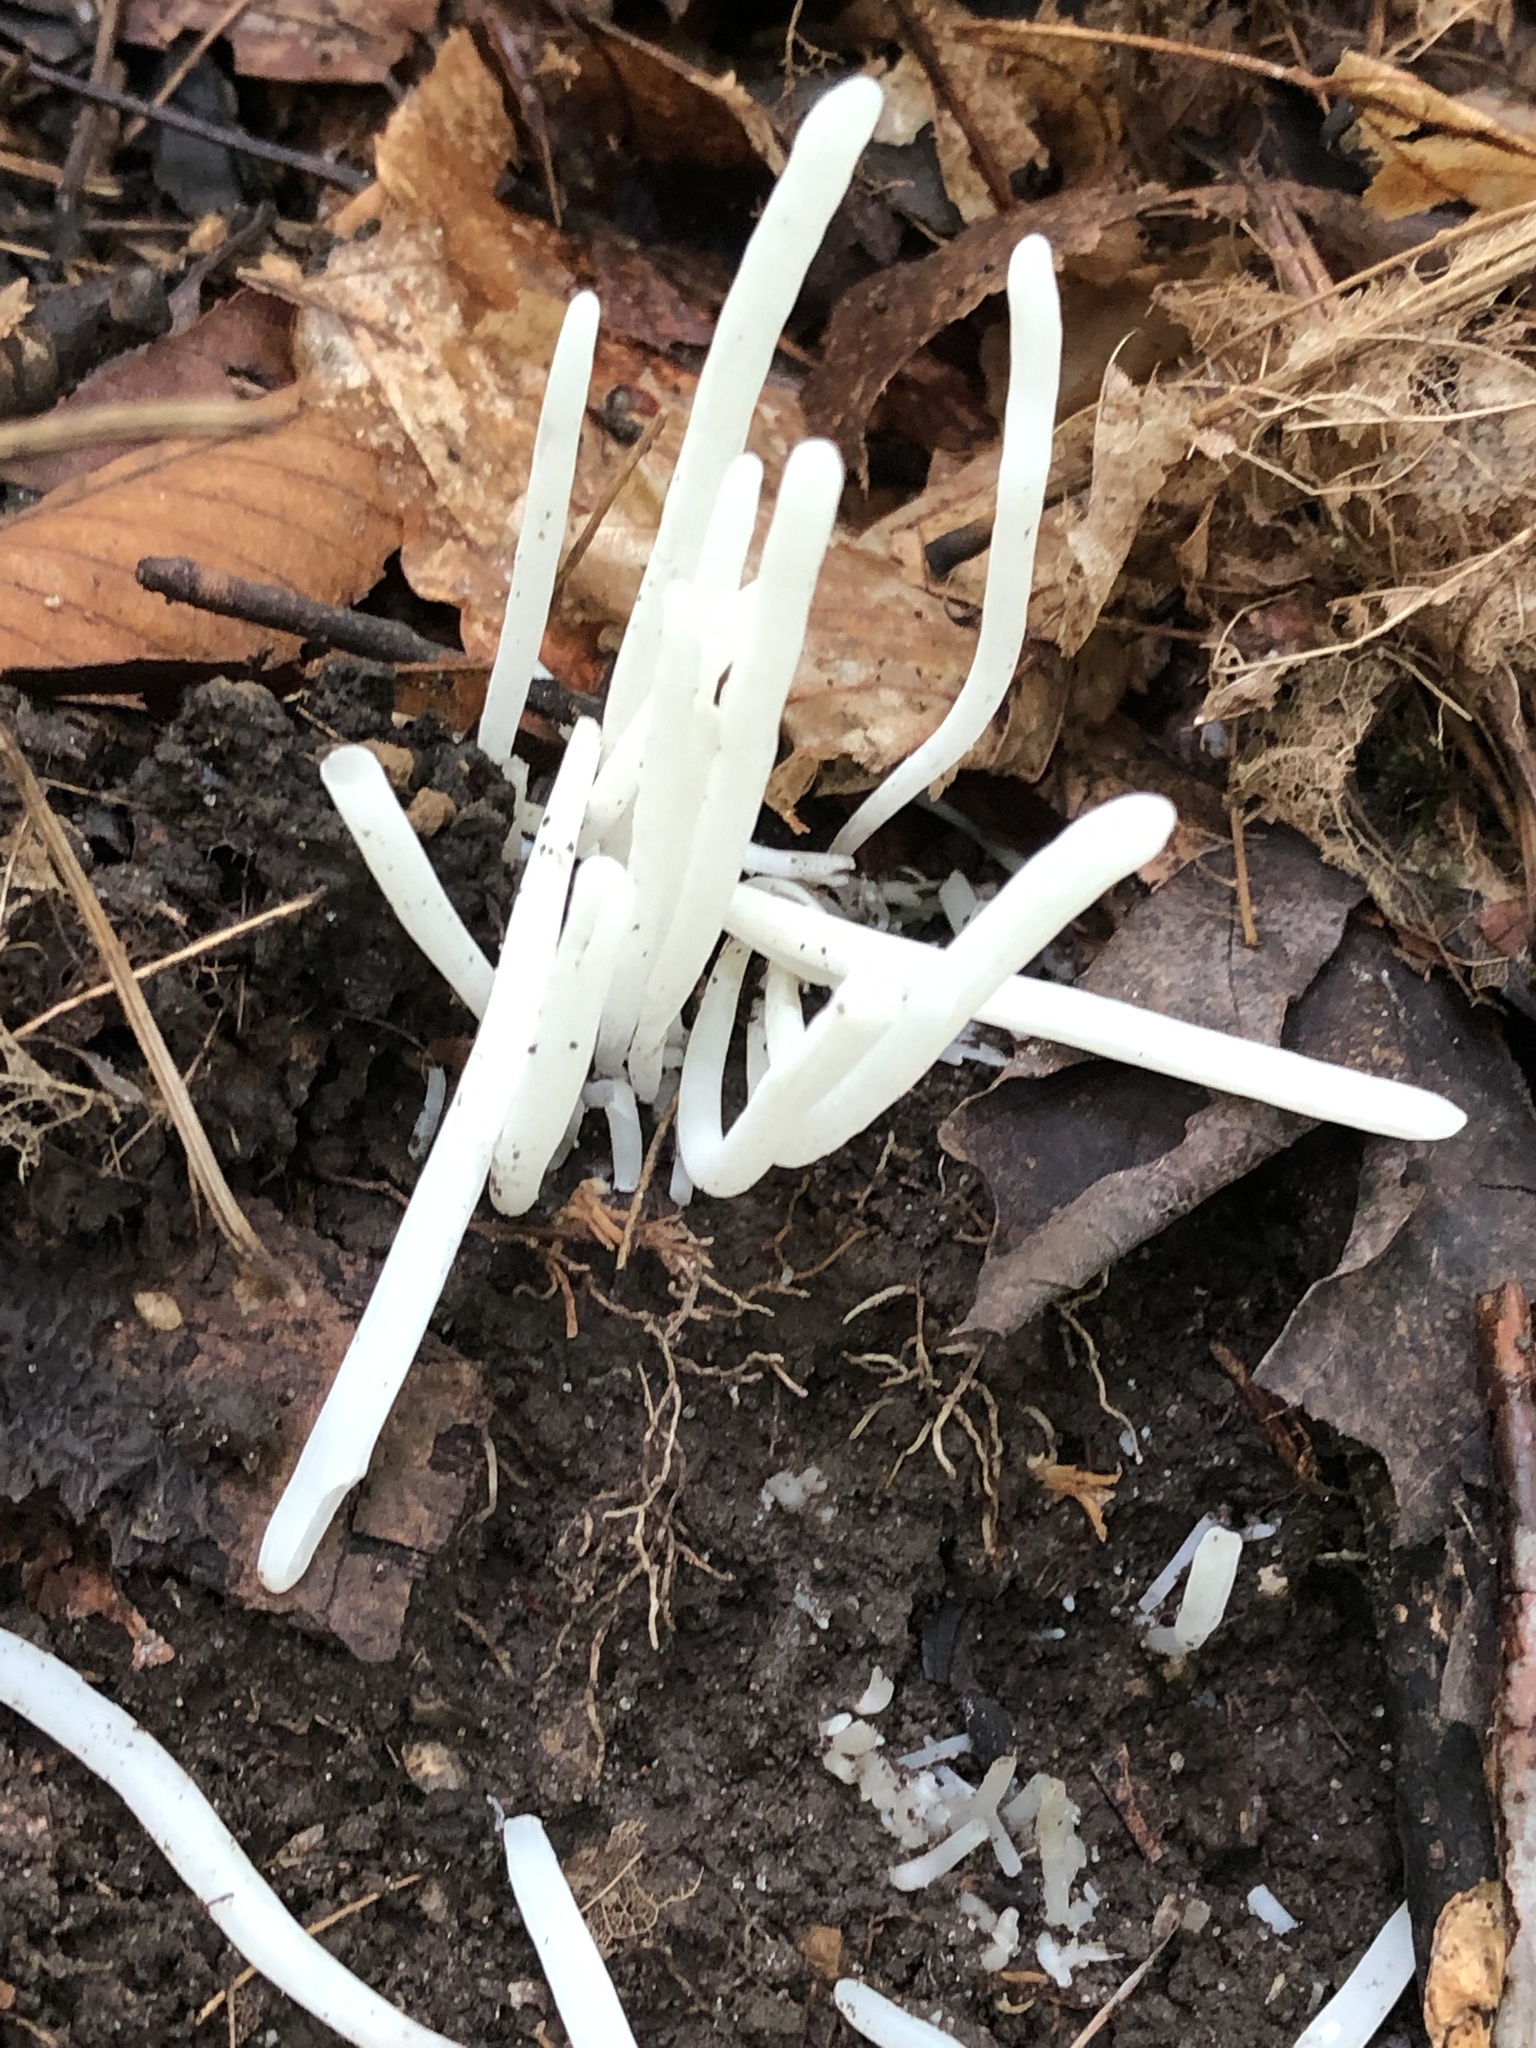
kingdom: Fungi
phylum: Basidiomycota
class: Agaricomycetes
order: Agaricales
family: Clavariaceae
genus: Clavaria
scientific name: Clavaria fragilis
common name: White spindles
